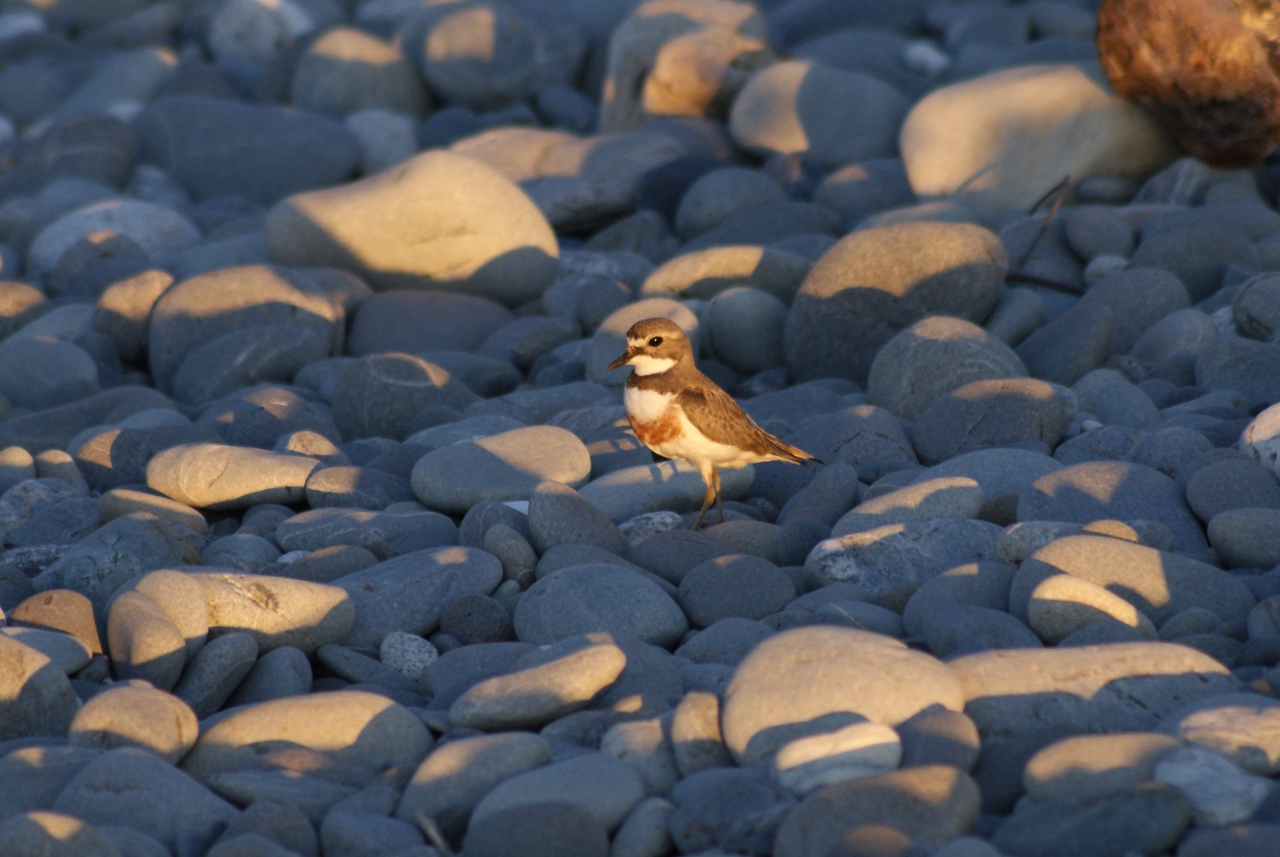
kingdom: Animalia
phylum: Chordata
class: Aves
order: Charadriiformes
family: Charadriidae
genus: Anarhynchus
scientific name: Anarhynchus
